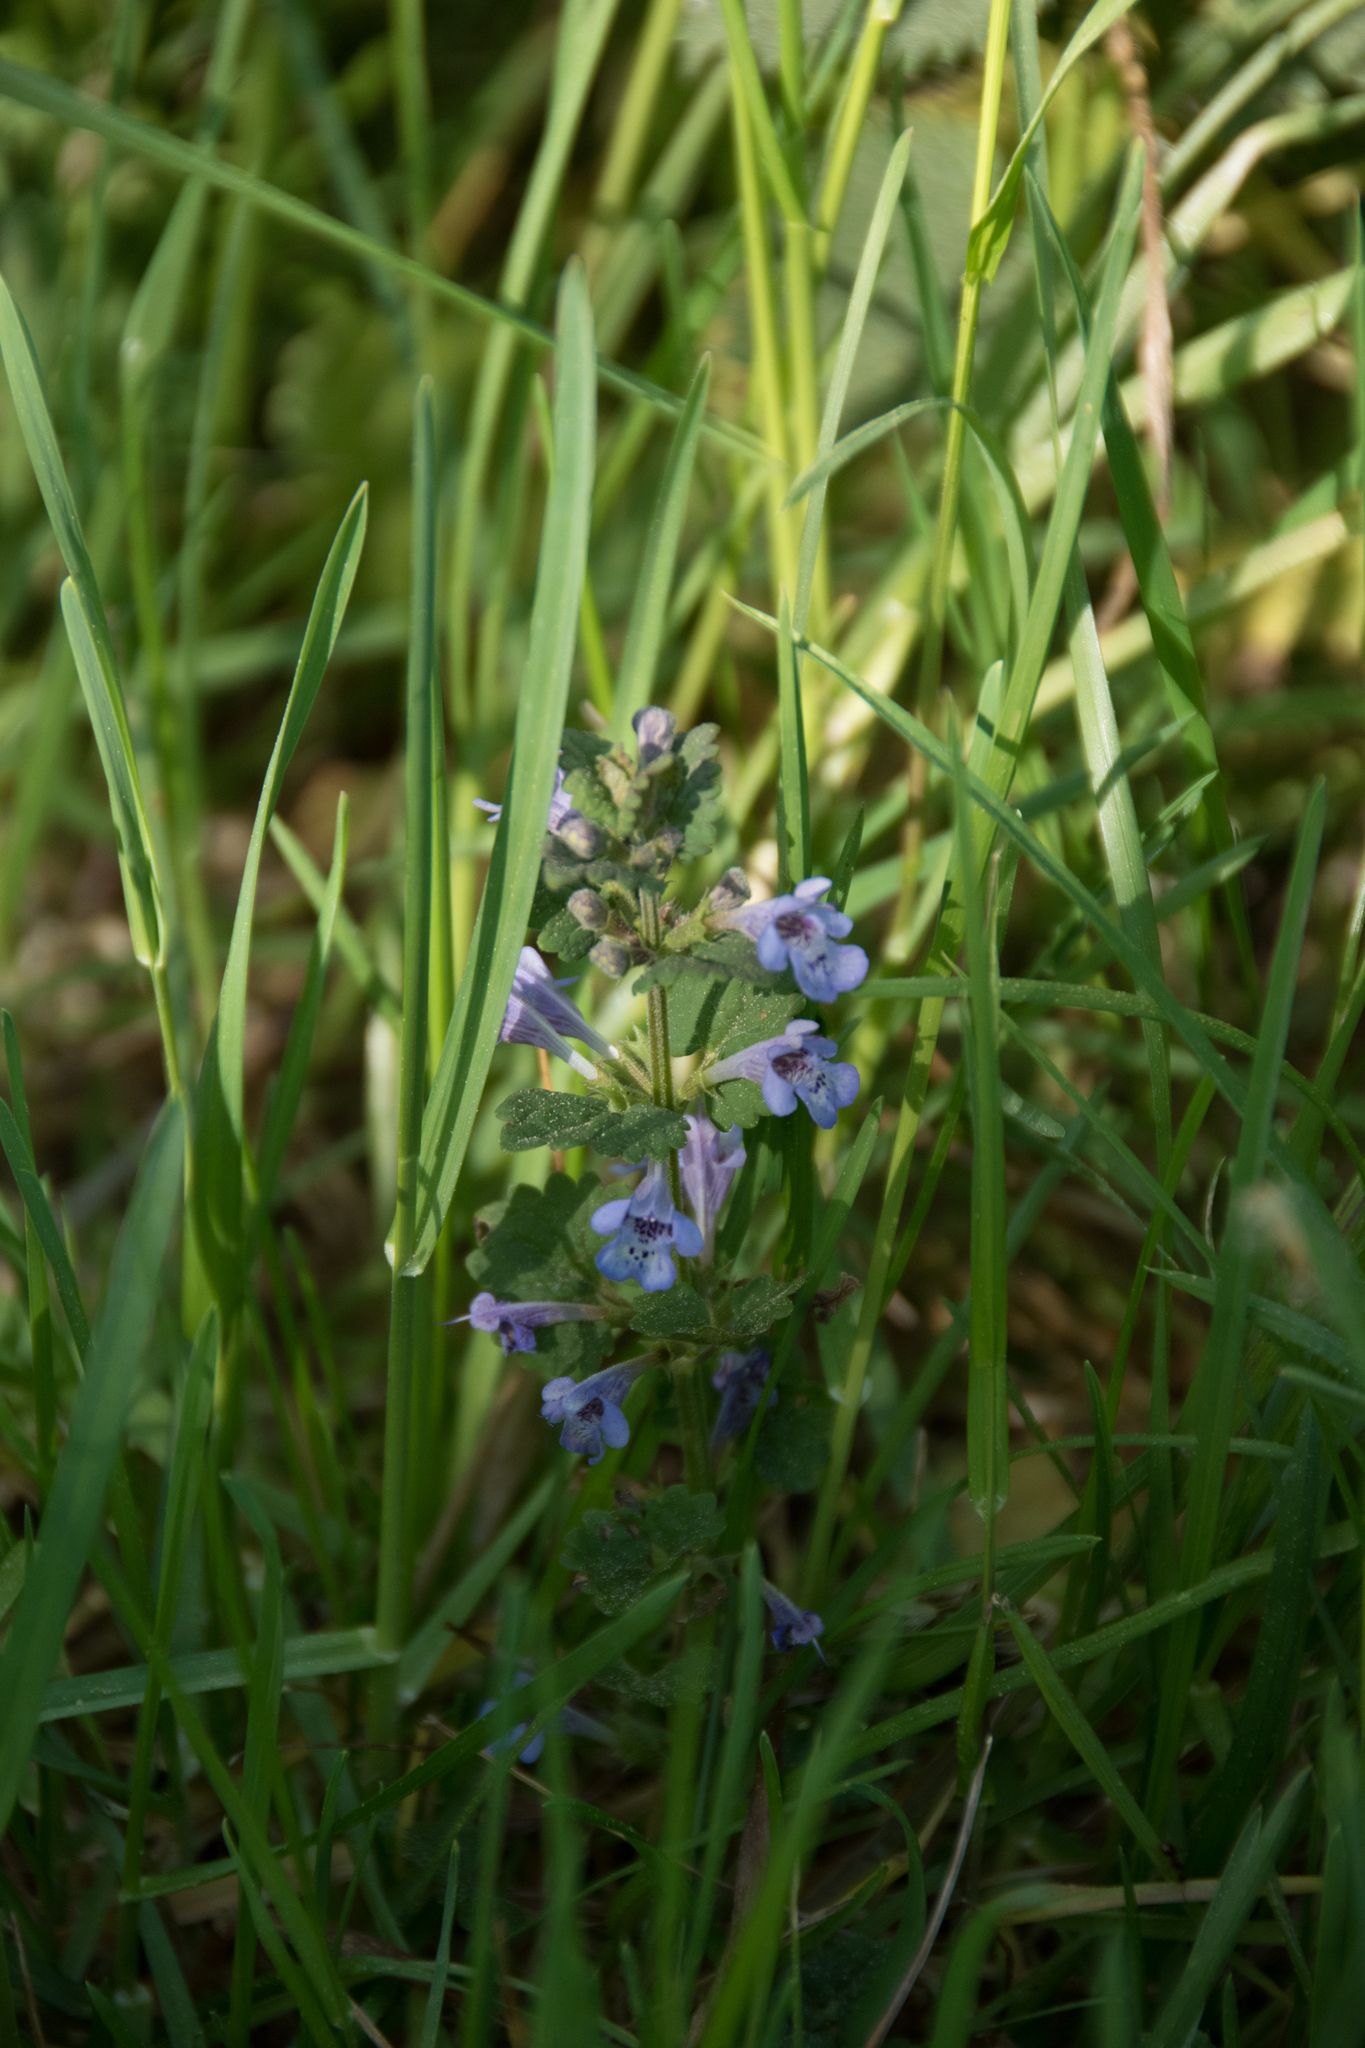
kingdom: Plantae
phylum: Tracheophyta
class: Magnoliopsida
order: Lamiales
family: Lamiaceae
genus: Glechoma
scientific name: Glechoma hederacea
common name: Ground ivy
